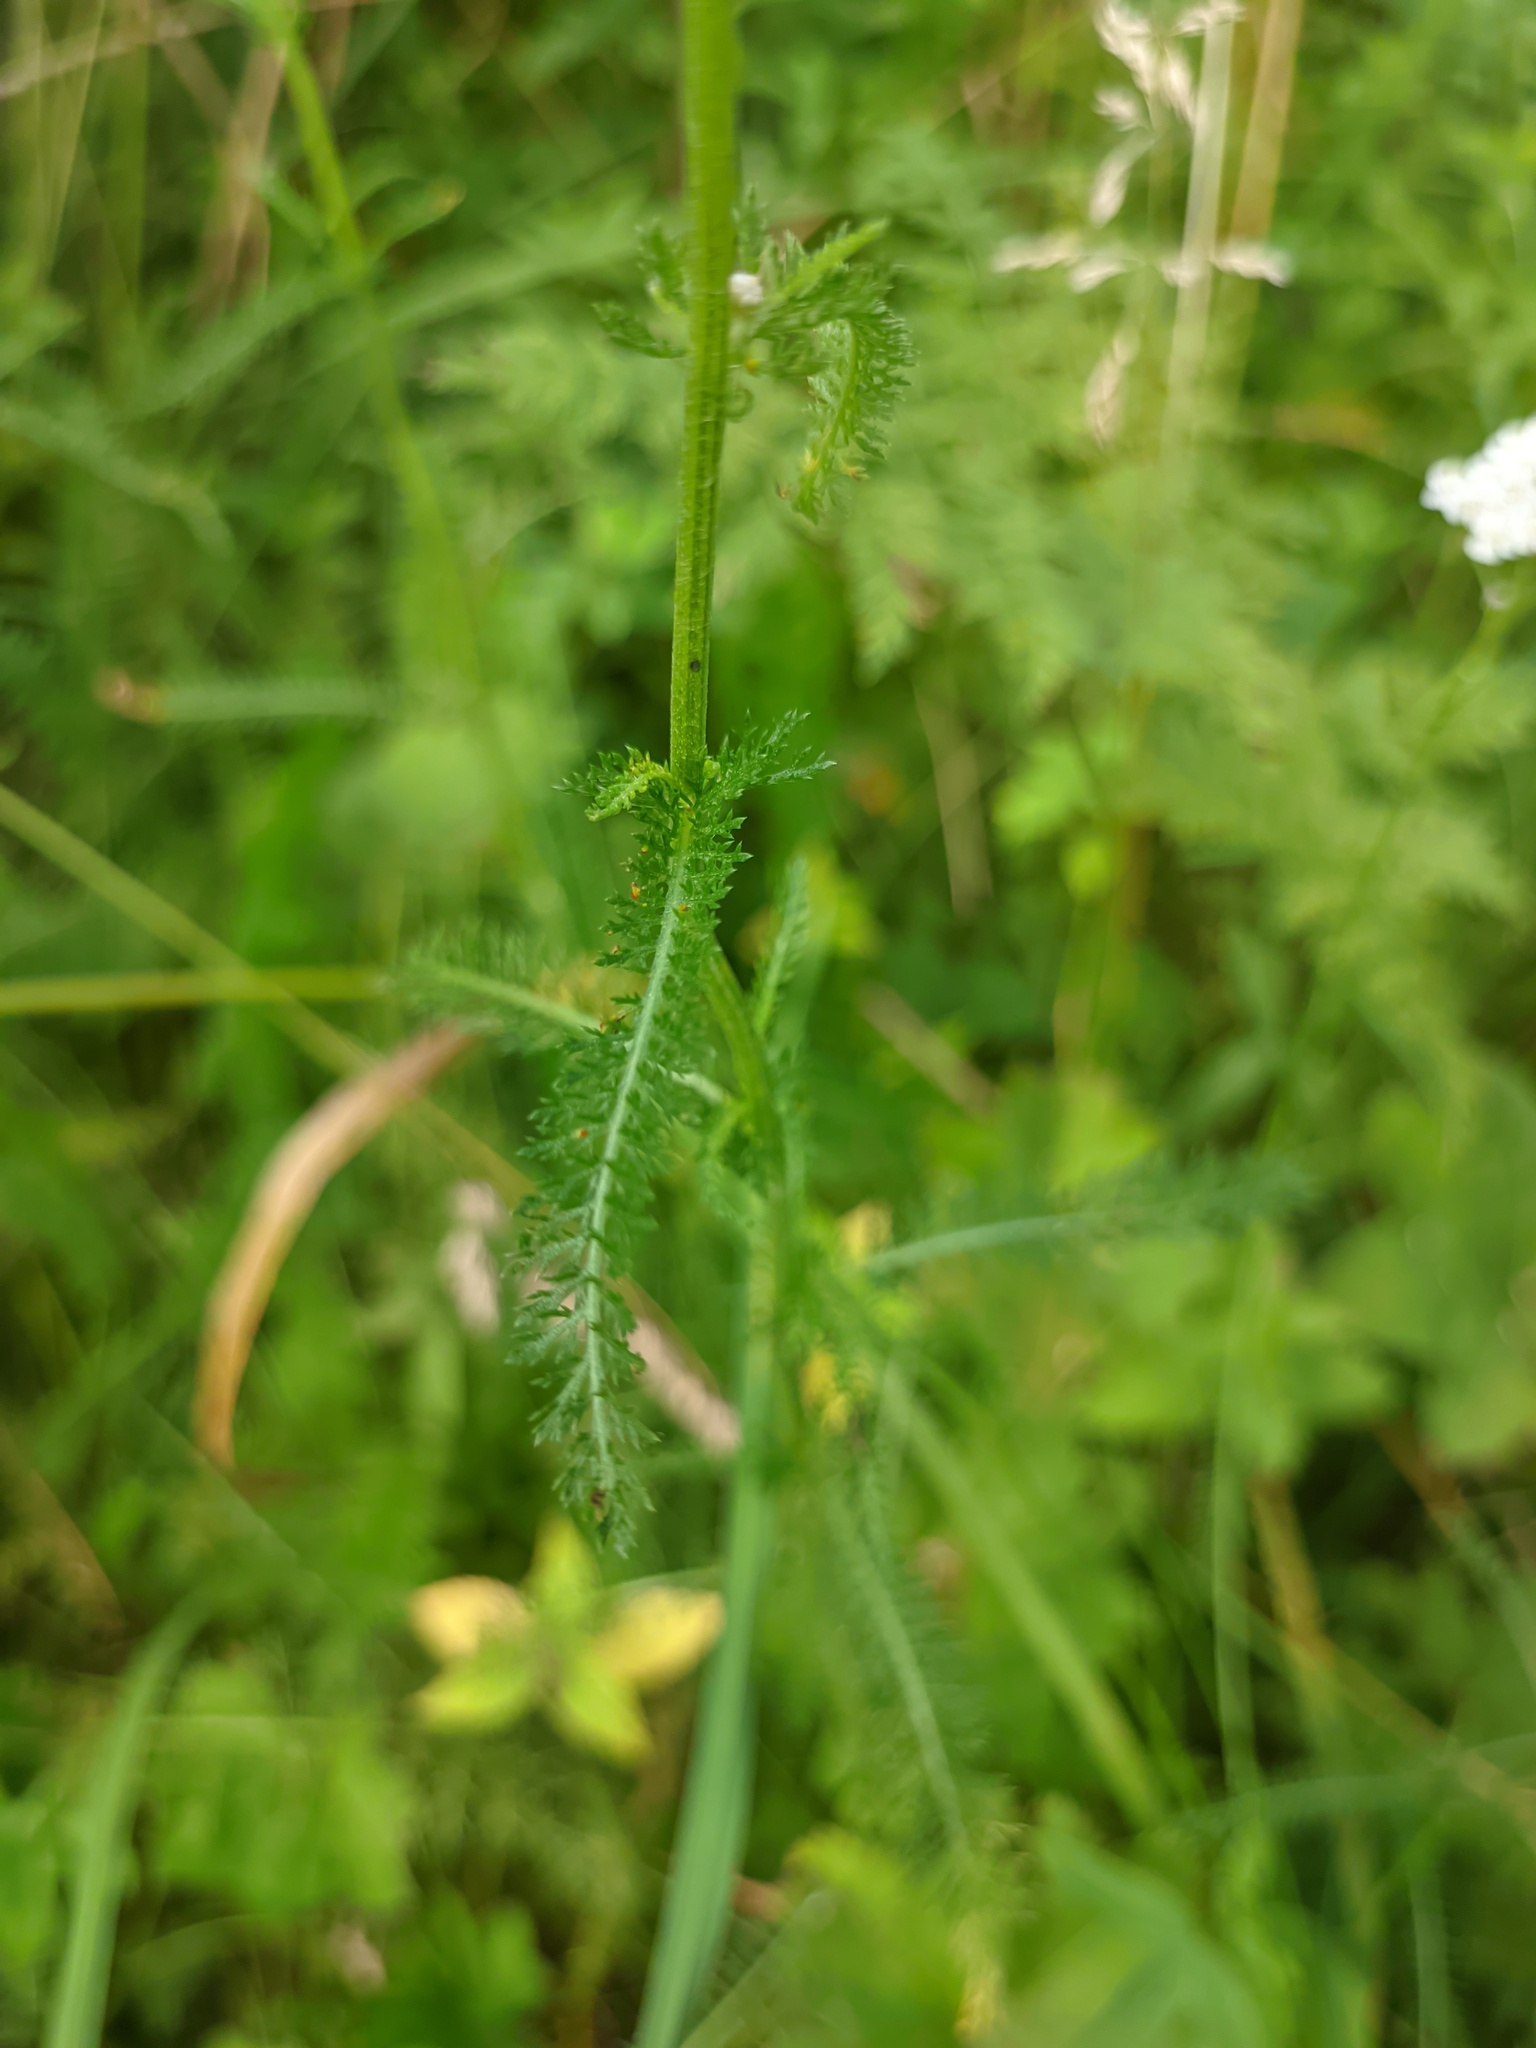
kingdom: Plantae
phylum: Tracheophyta
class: Magnoliopsida
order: Asterales
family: Asteraceae
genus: Achillea
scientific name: Achillea millefolium
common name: Yarrow
